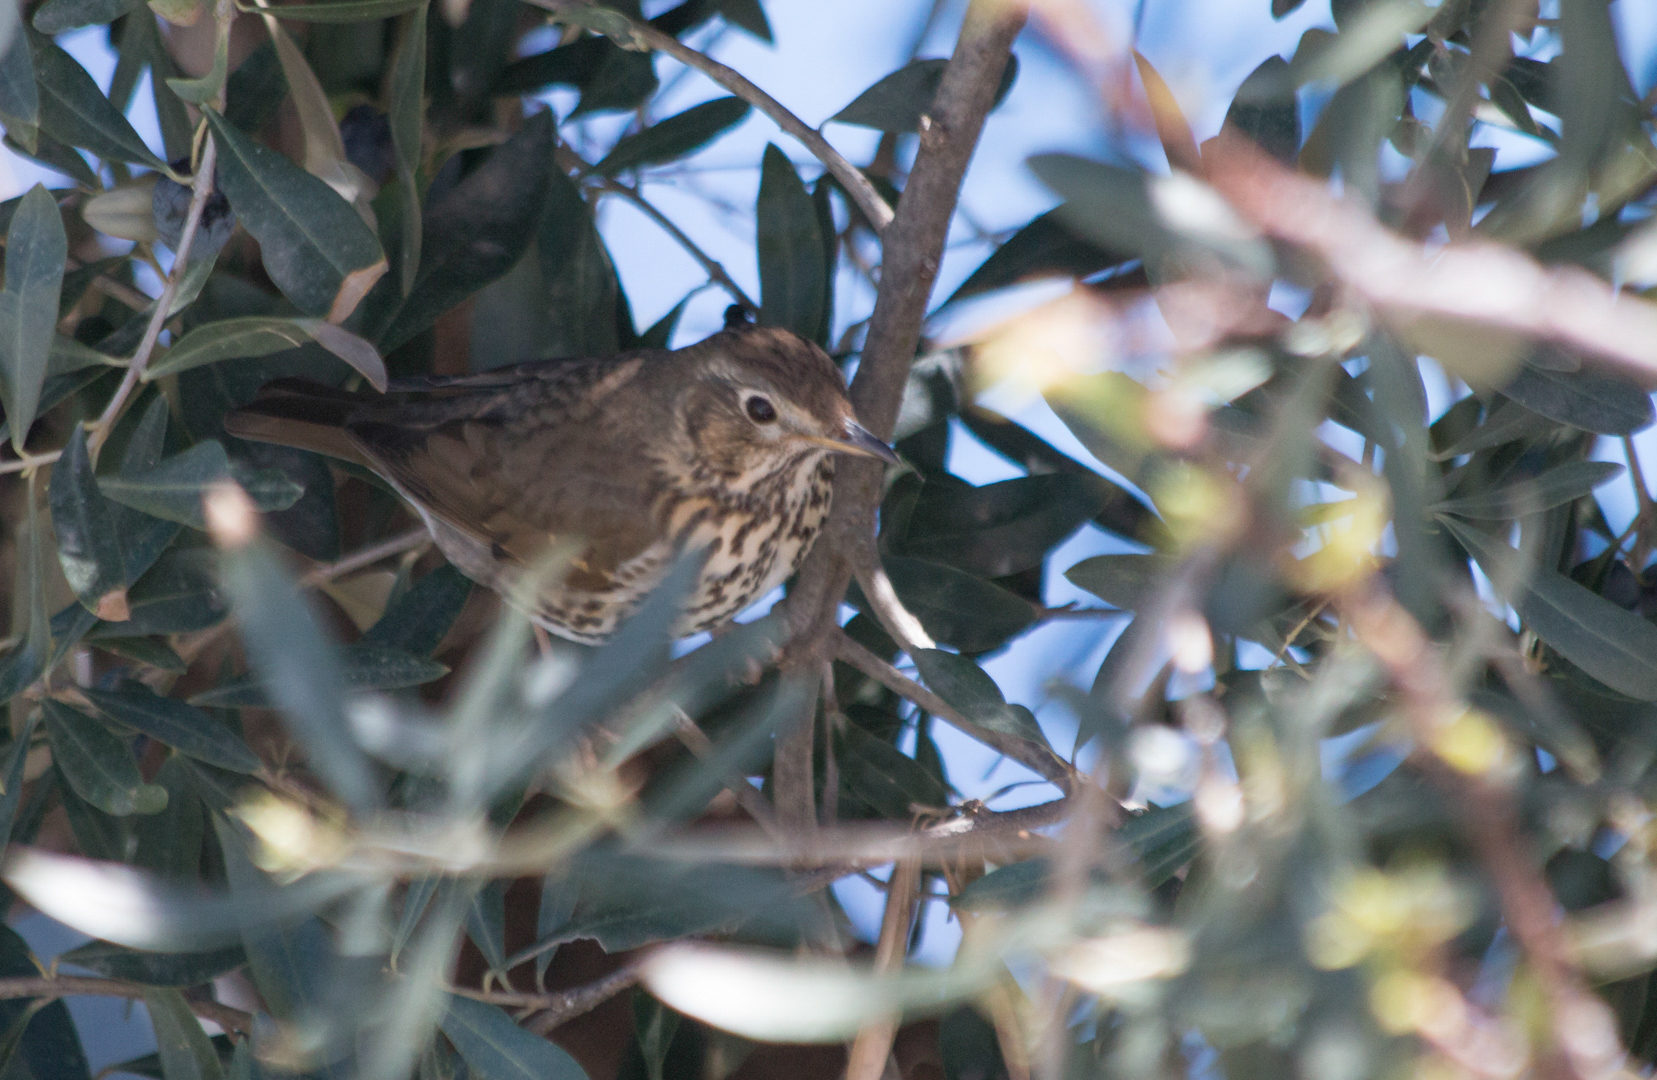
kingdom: Animalia
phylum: Chordata
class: Aves
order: Passeriformes
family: Turdidae
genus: Turdus
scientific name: Turdus philomelos
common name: Song thrush
